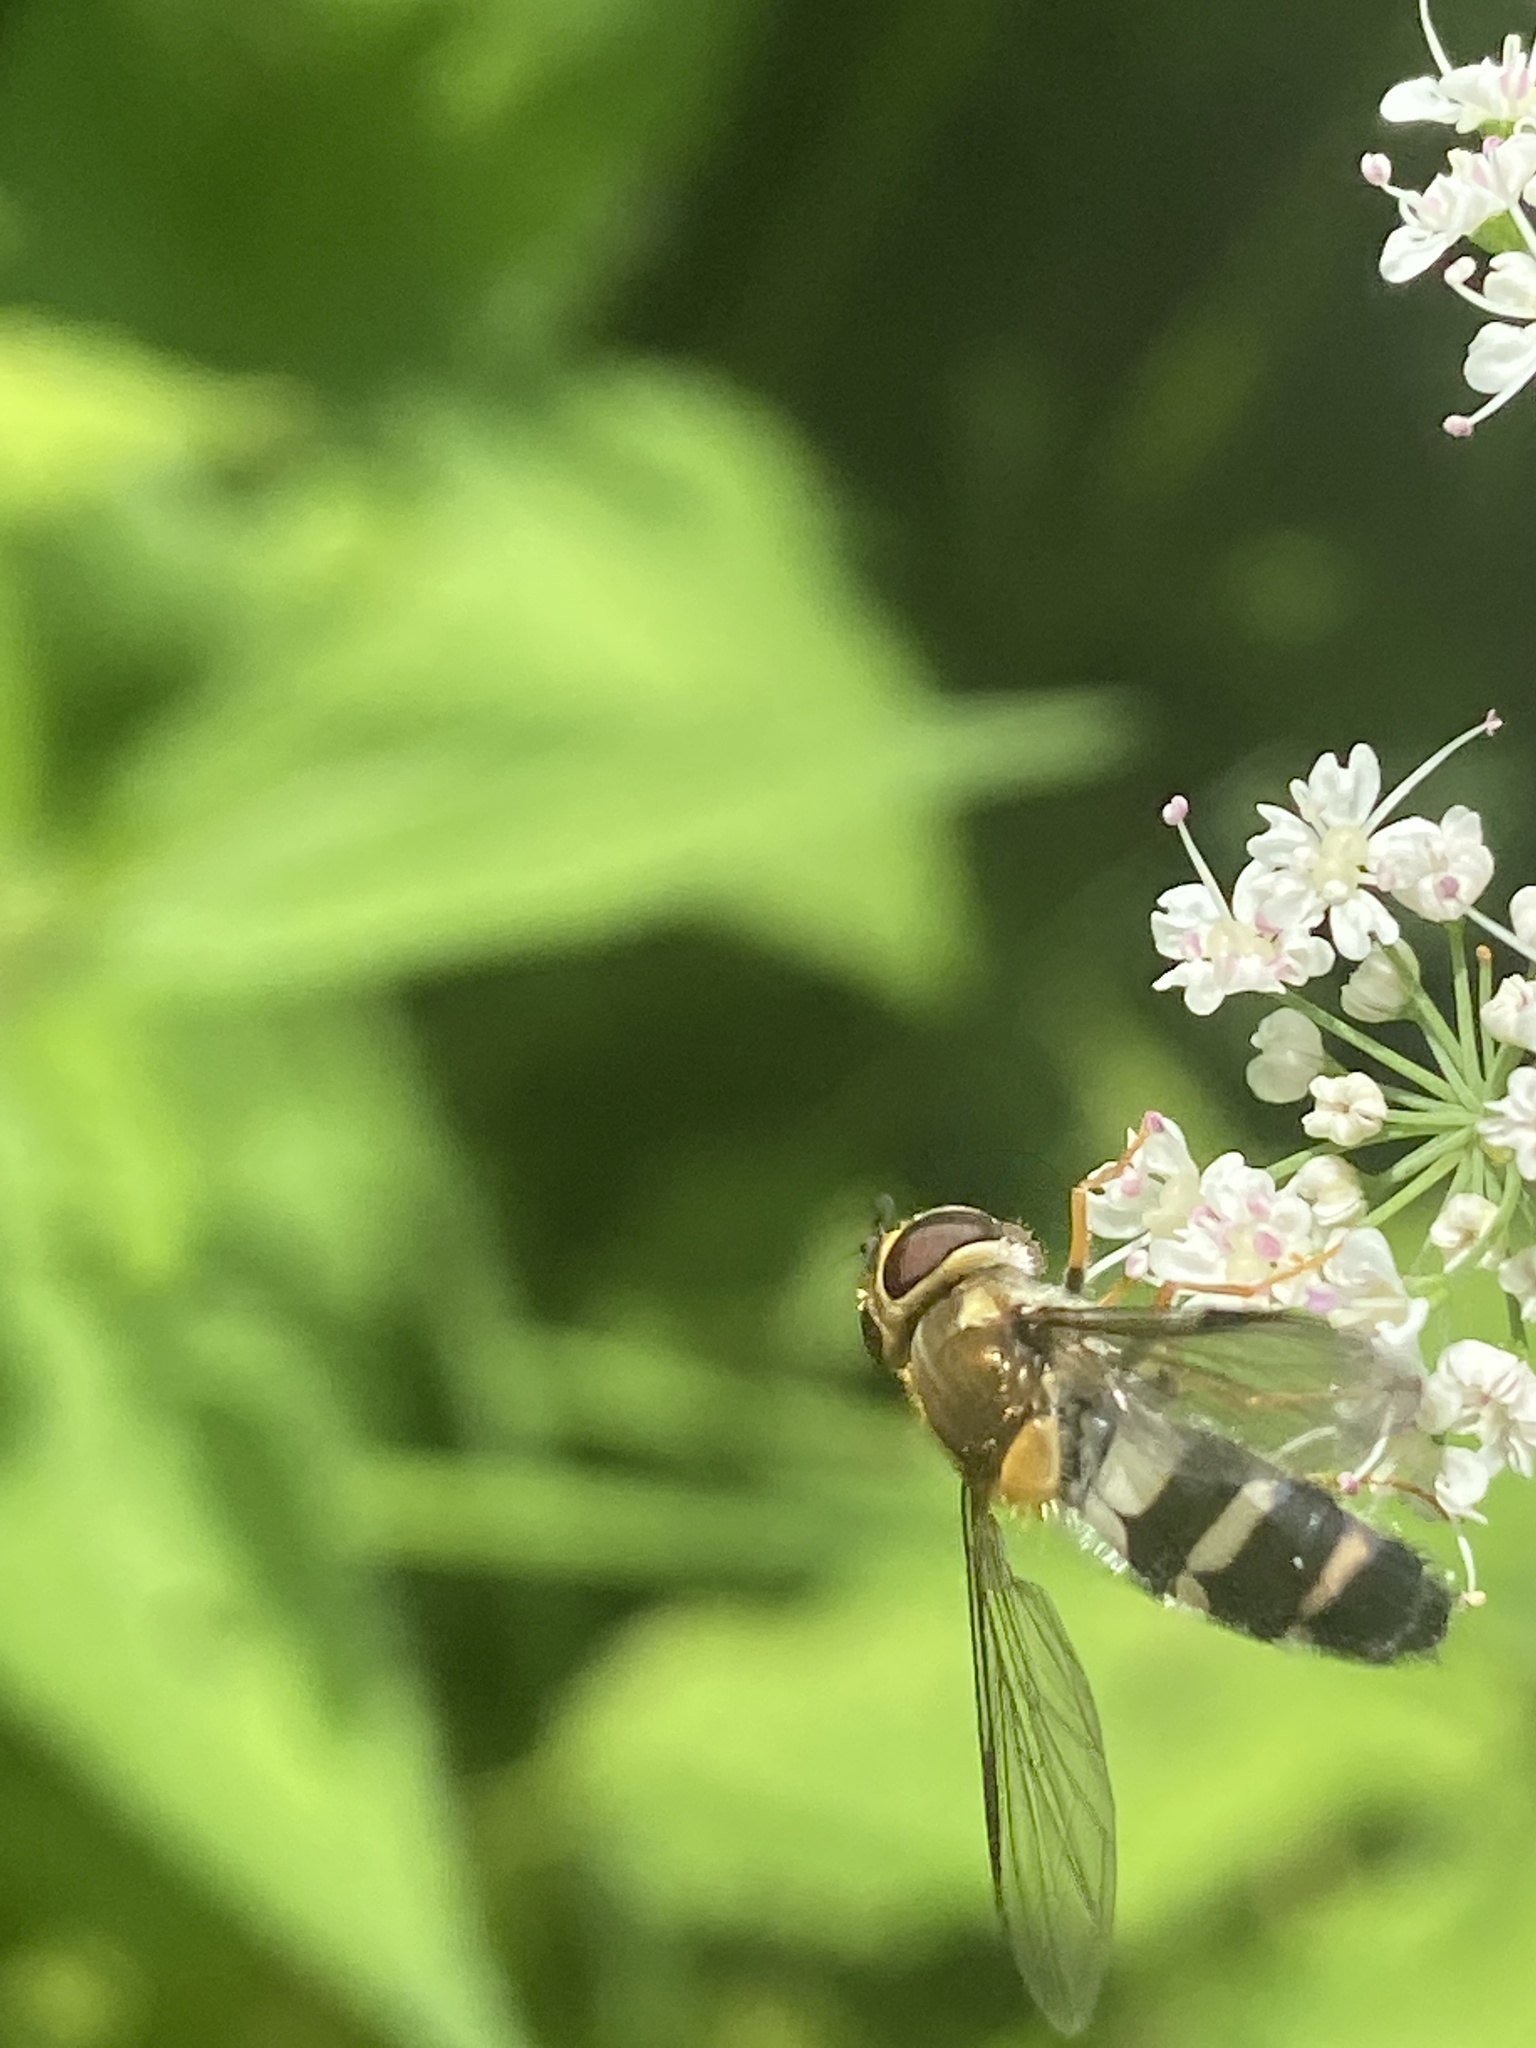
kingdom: Animalia
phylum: Arthropoda
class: Insecta
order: Diptera
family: Syrphidae
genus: Leucozona
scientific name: Leucozona glaucia
